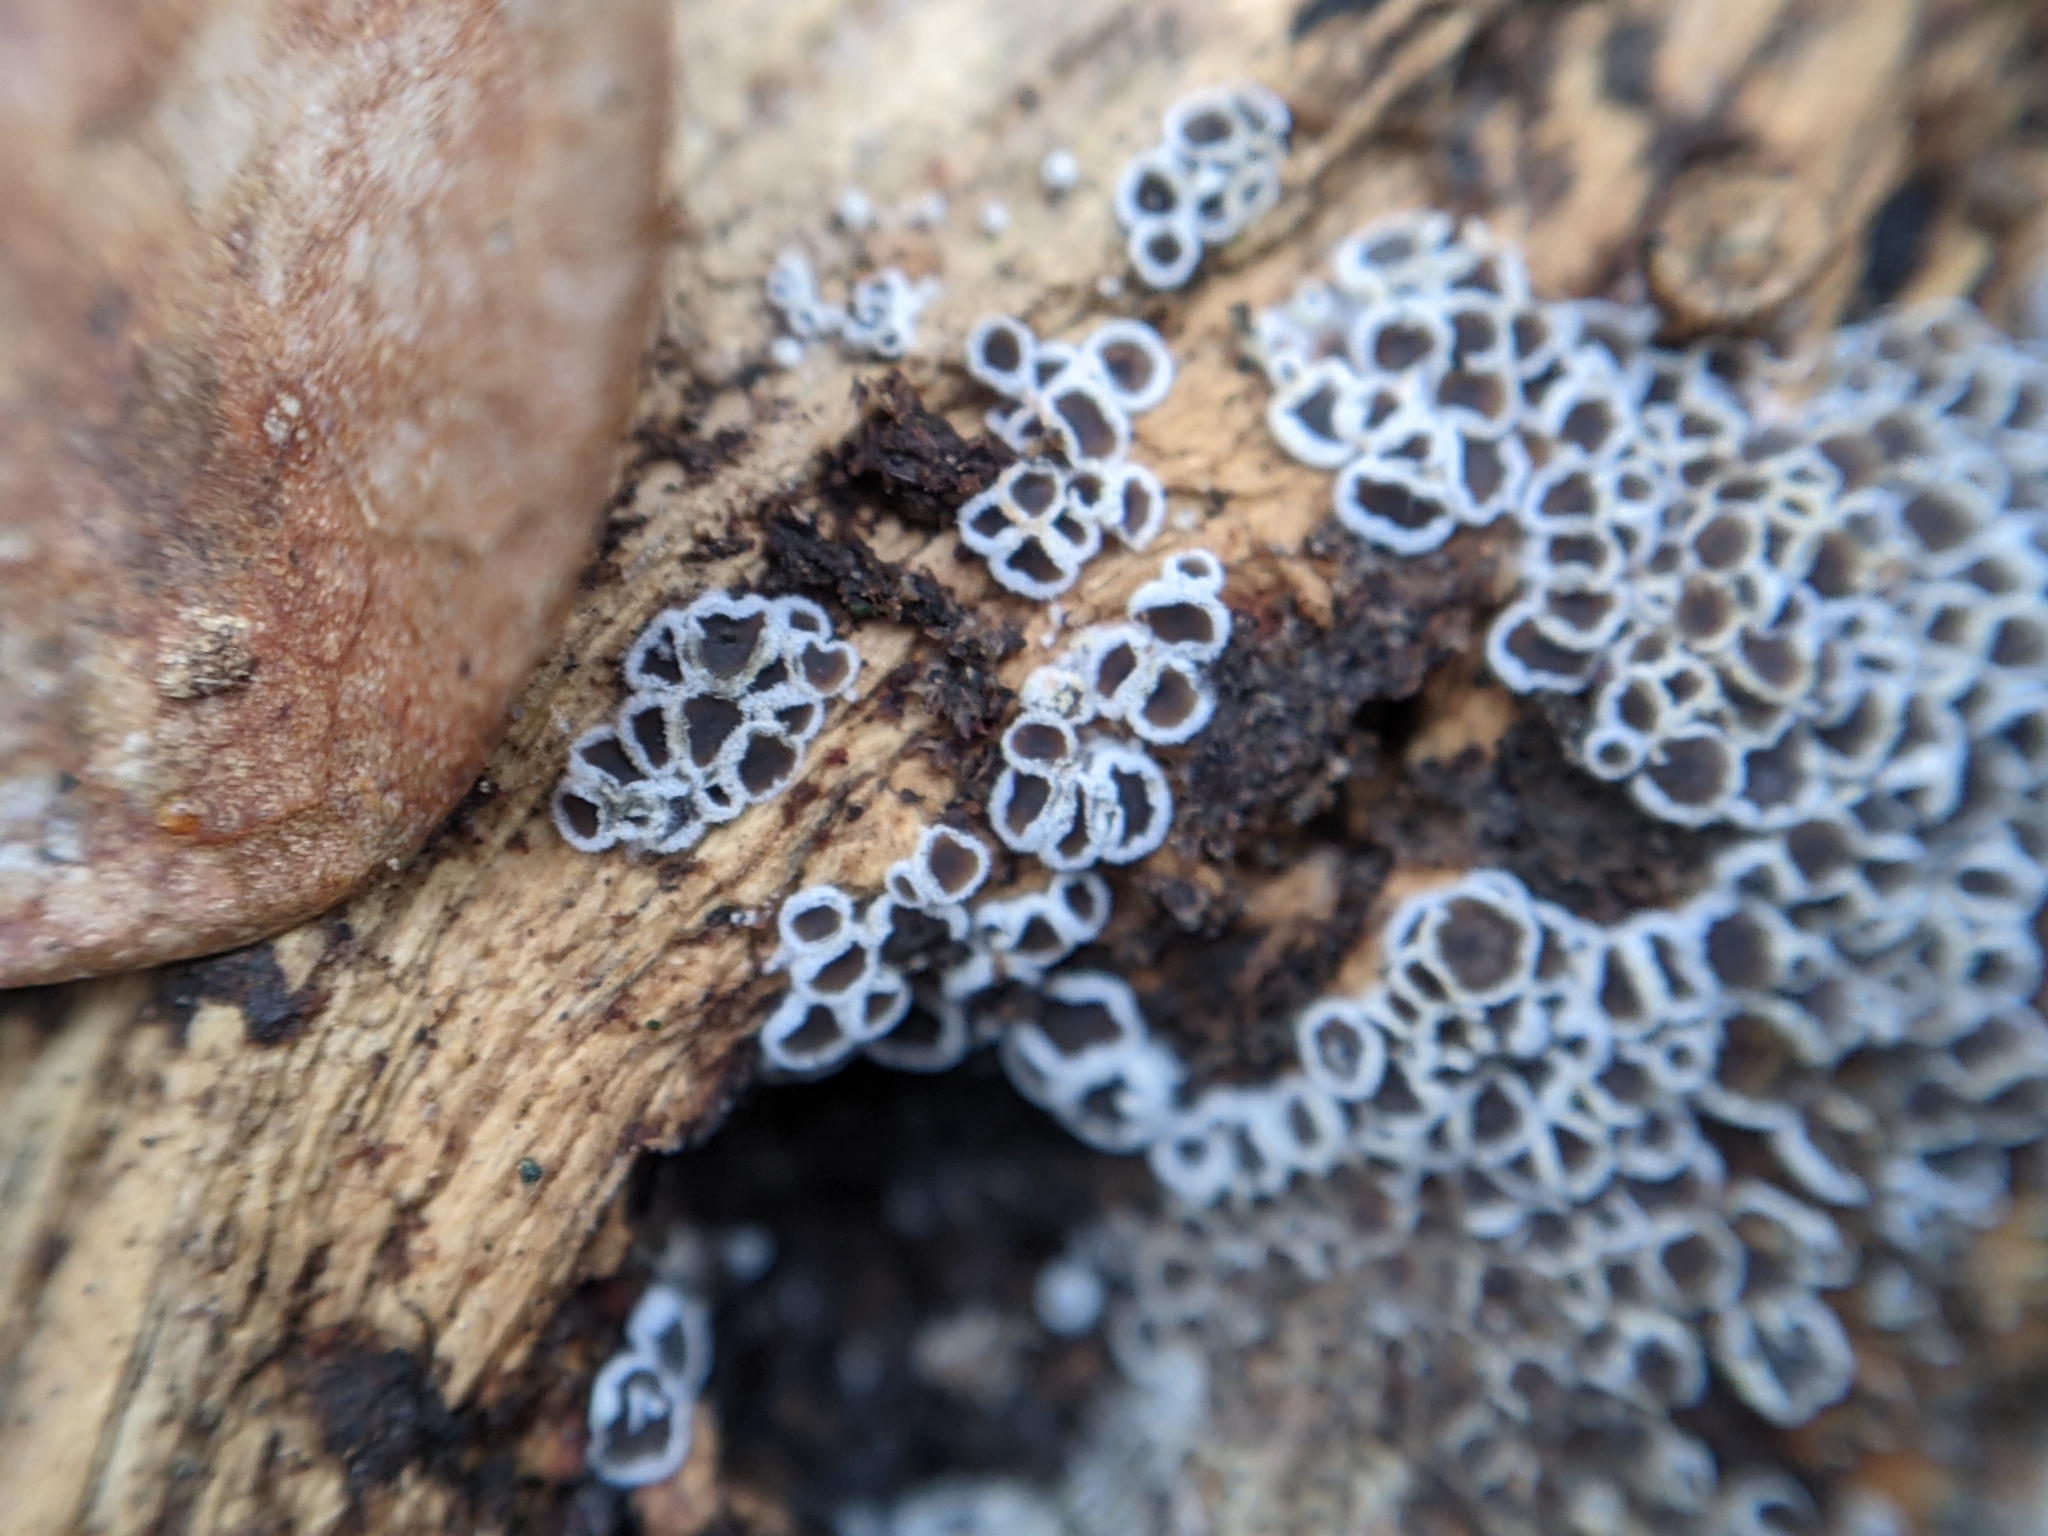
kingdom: Fungi
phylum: Ascomycota
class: Leotiomycetes
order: Helotiales
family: Arachnopezizaceae
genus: Eriopezia
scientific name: Eriopezia caesia
